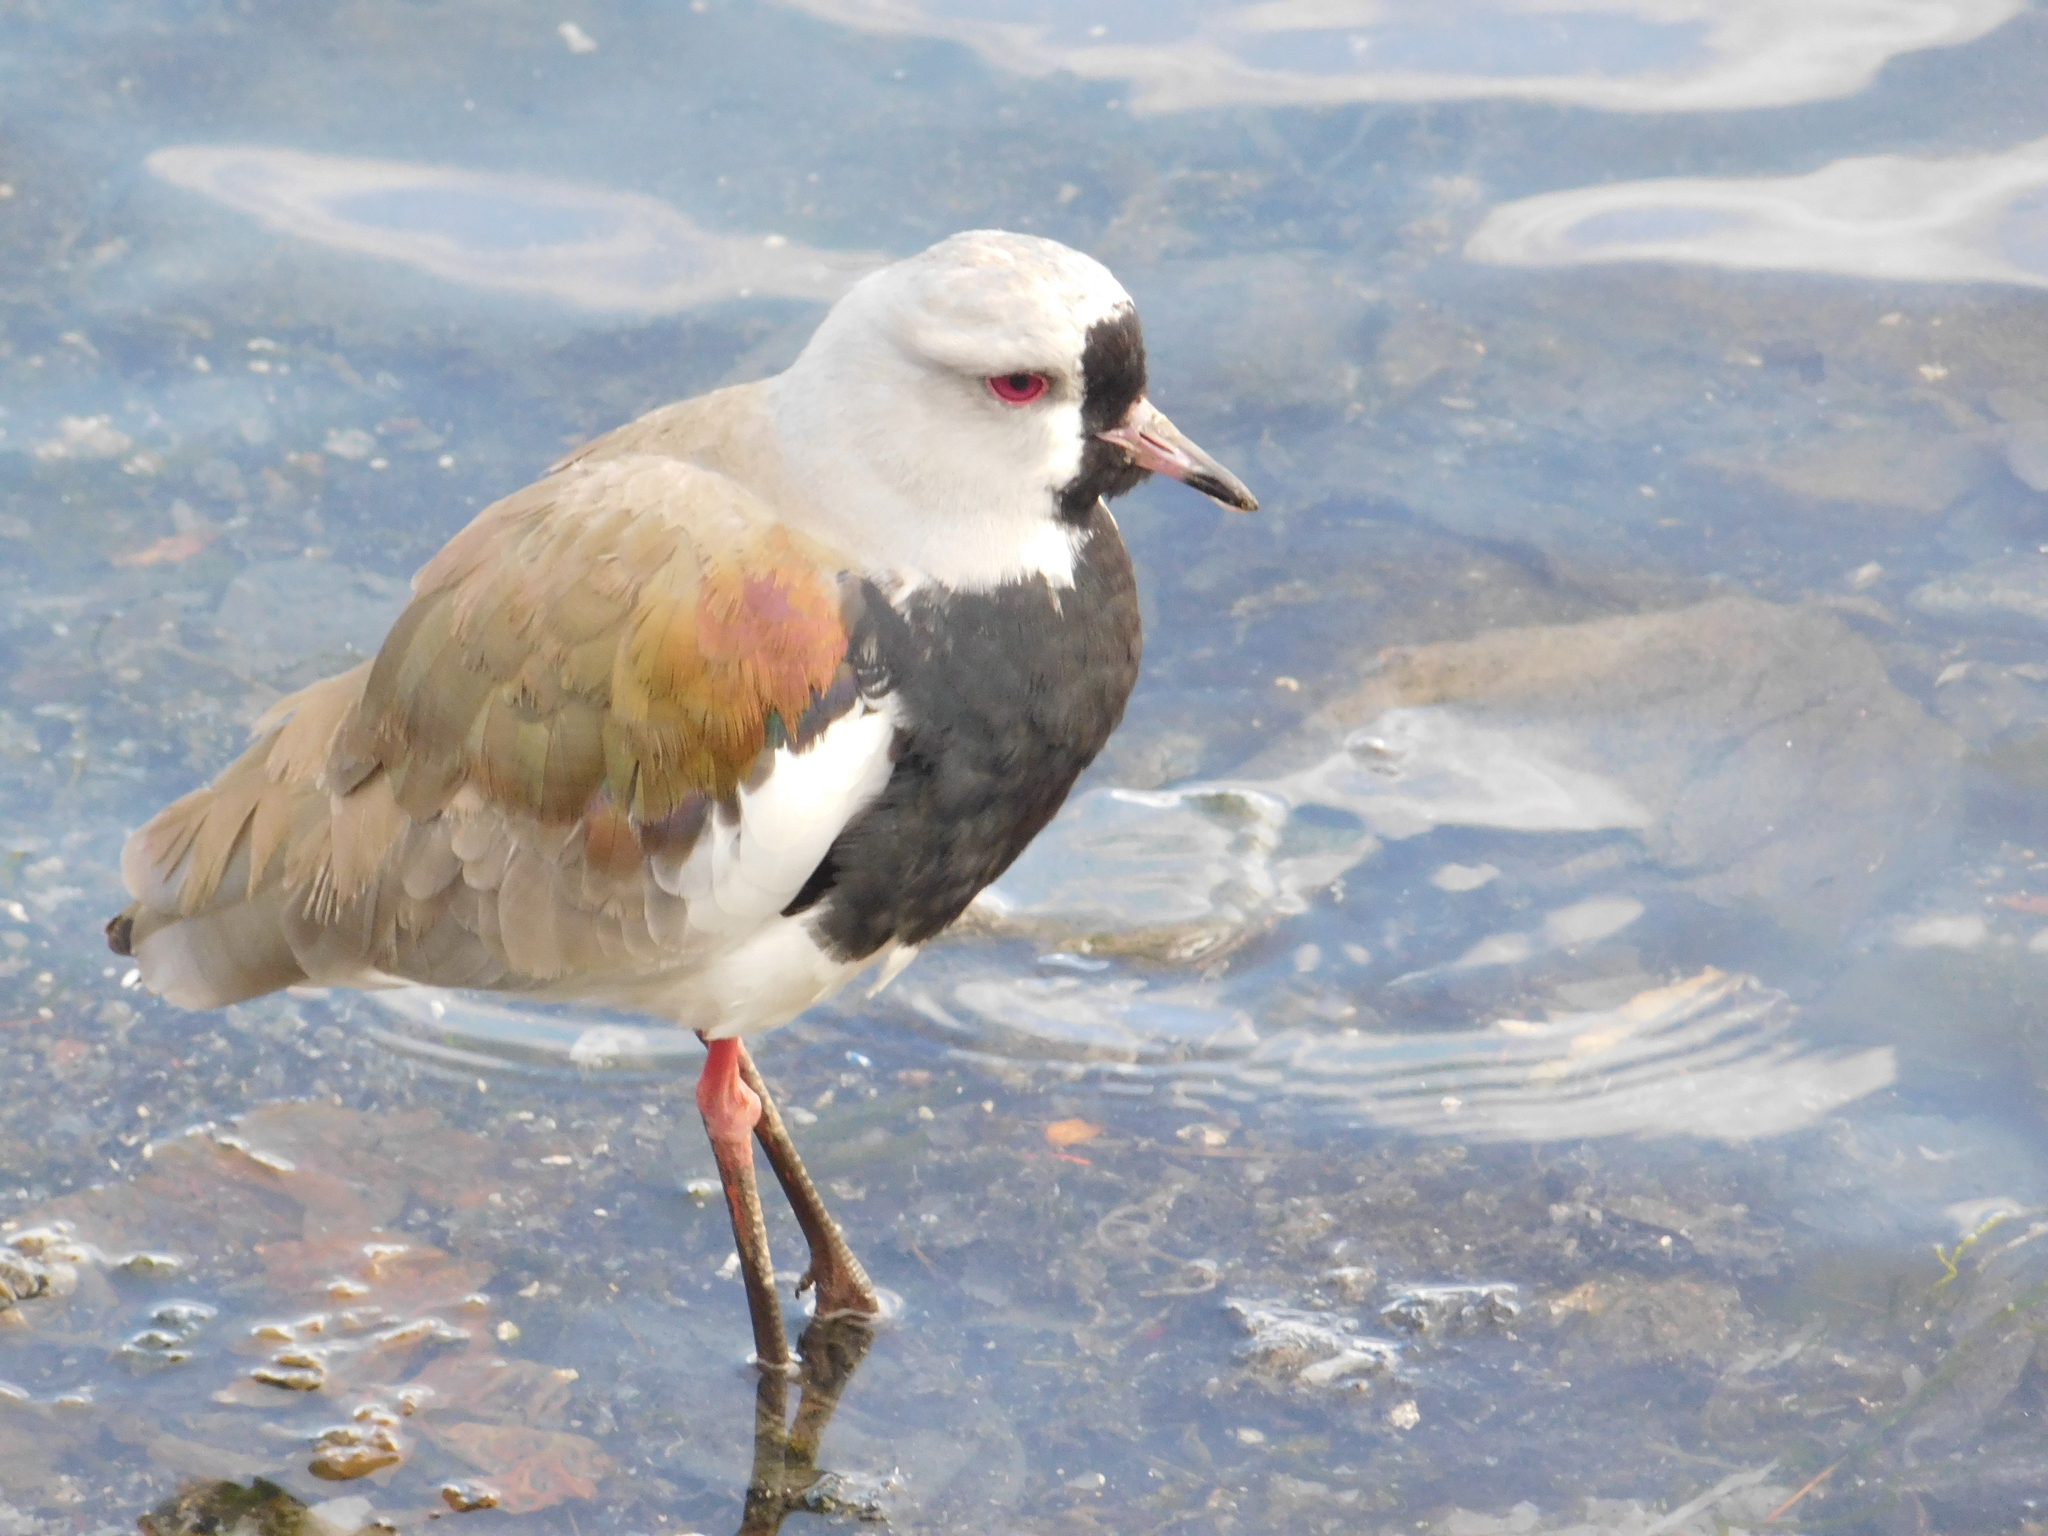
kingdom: Animalia
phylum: Chordata
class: Aves
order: Charadriiformes
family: Charadriidae
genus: Vanellus
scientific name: Vanellus chilensis
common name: Southern lapwing
